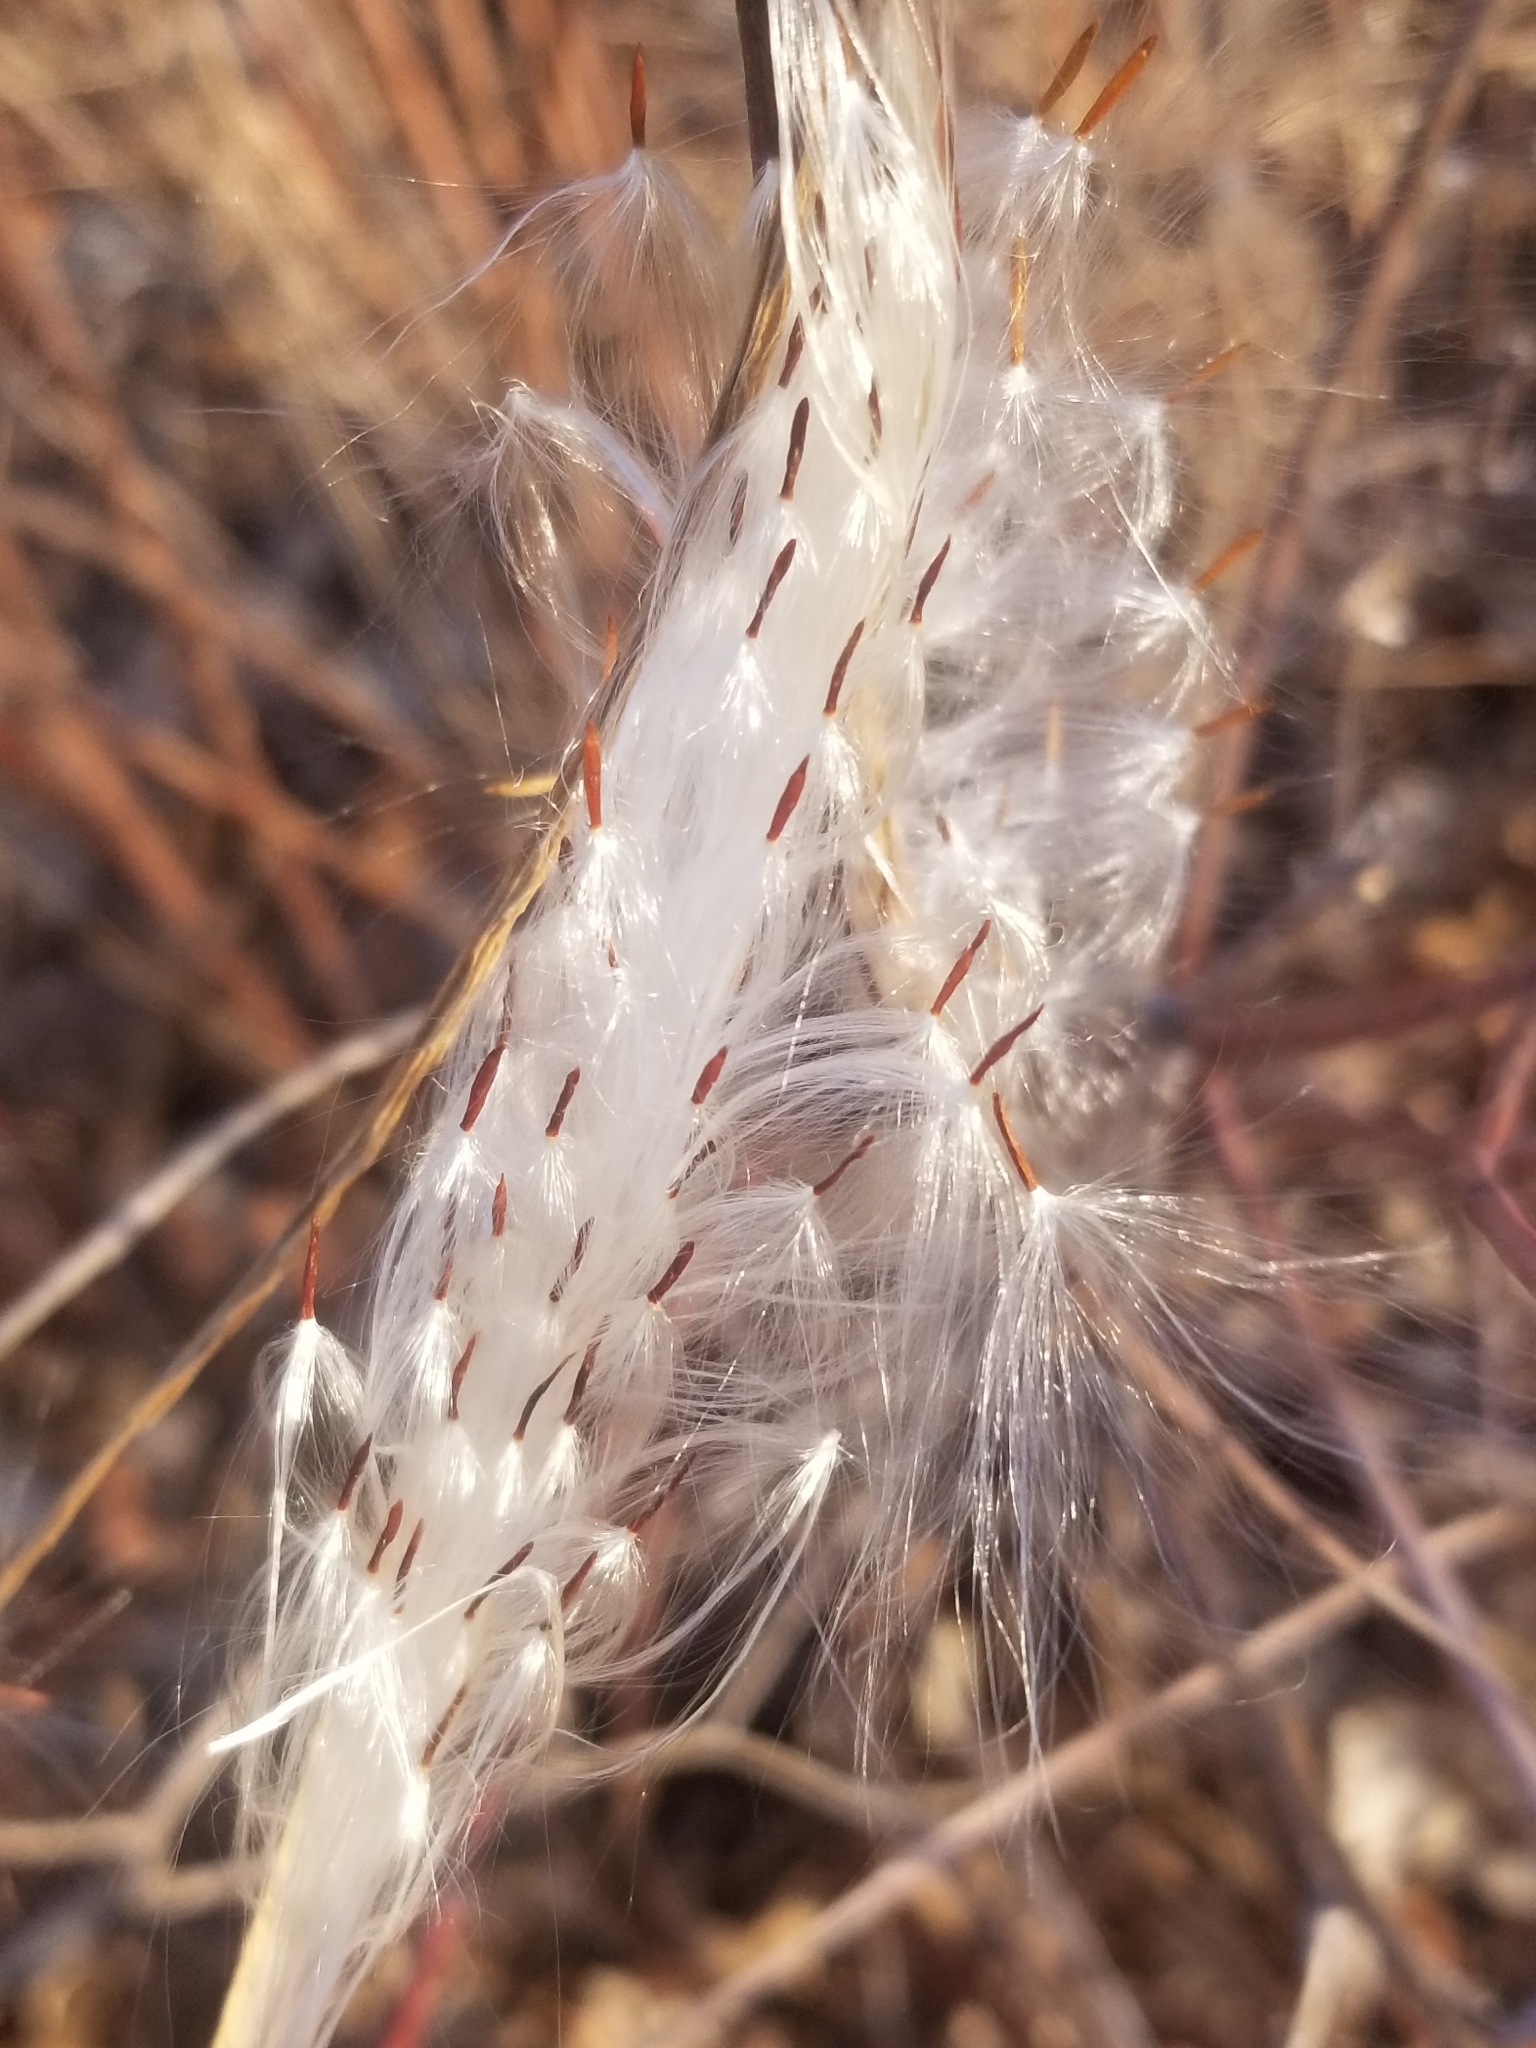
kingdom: Plantae
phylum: Tracheophyta
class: Magnoliopsida
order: Gentianales
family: Apocynaceae
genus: Apocynum
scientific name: Apocynum cannabinum
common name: Hemp dogbane
